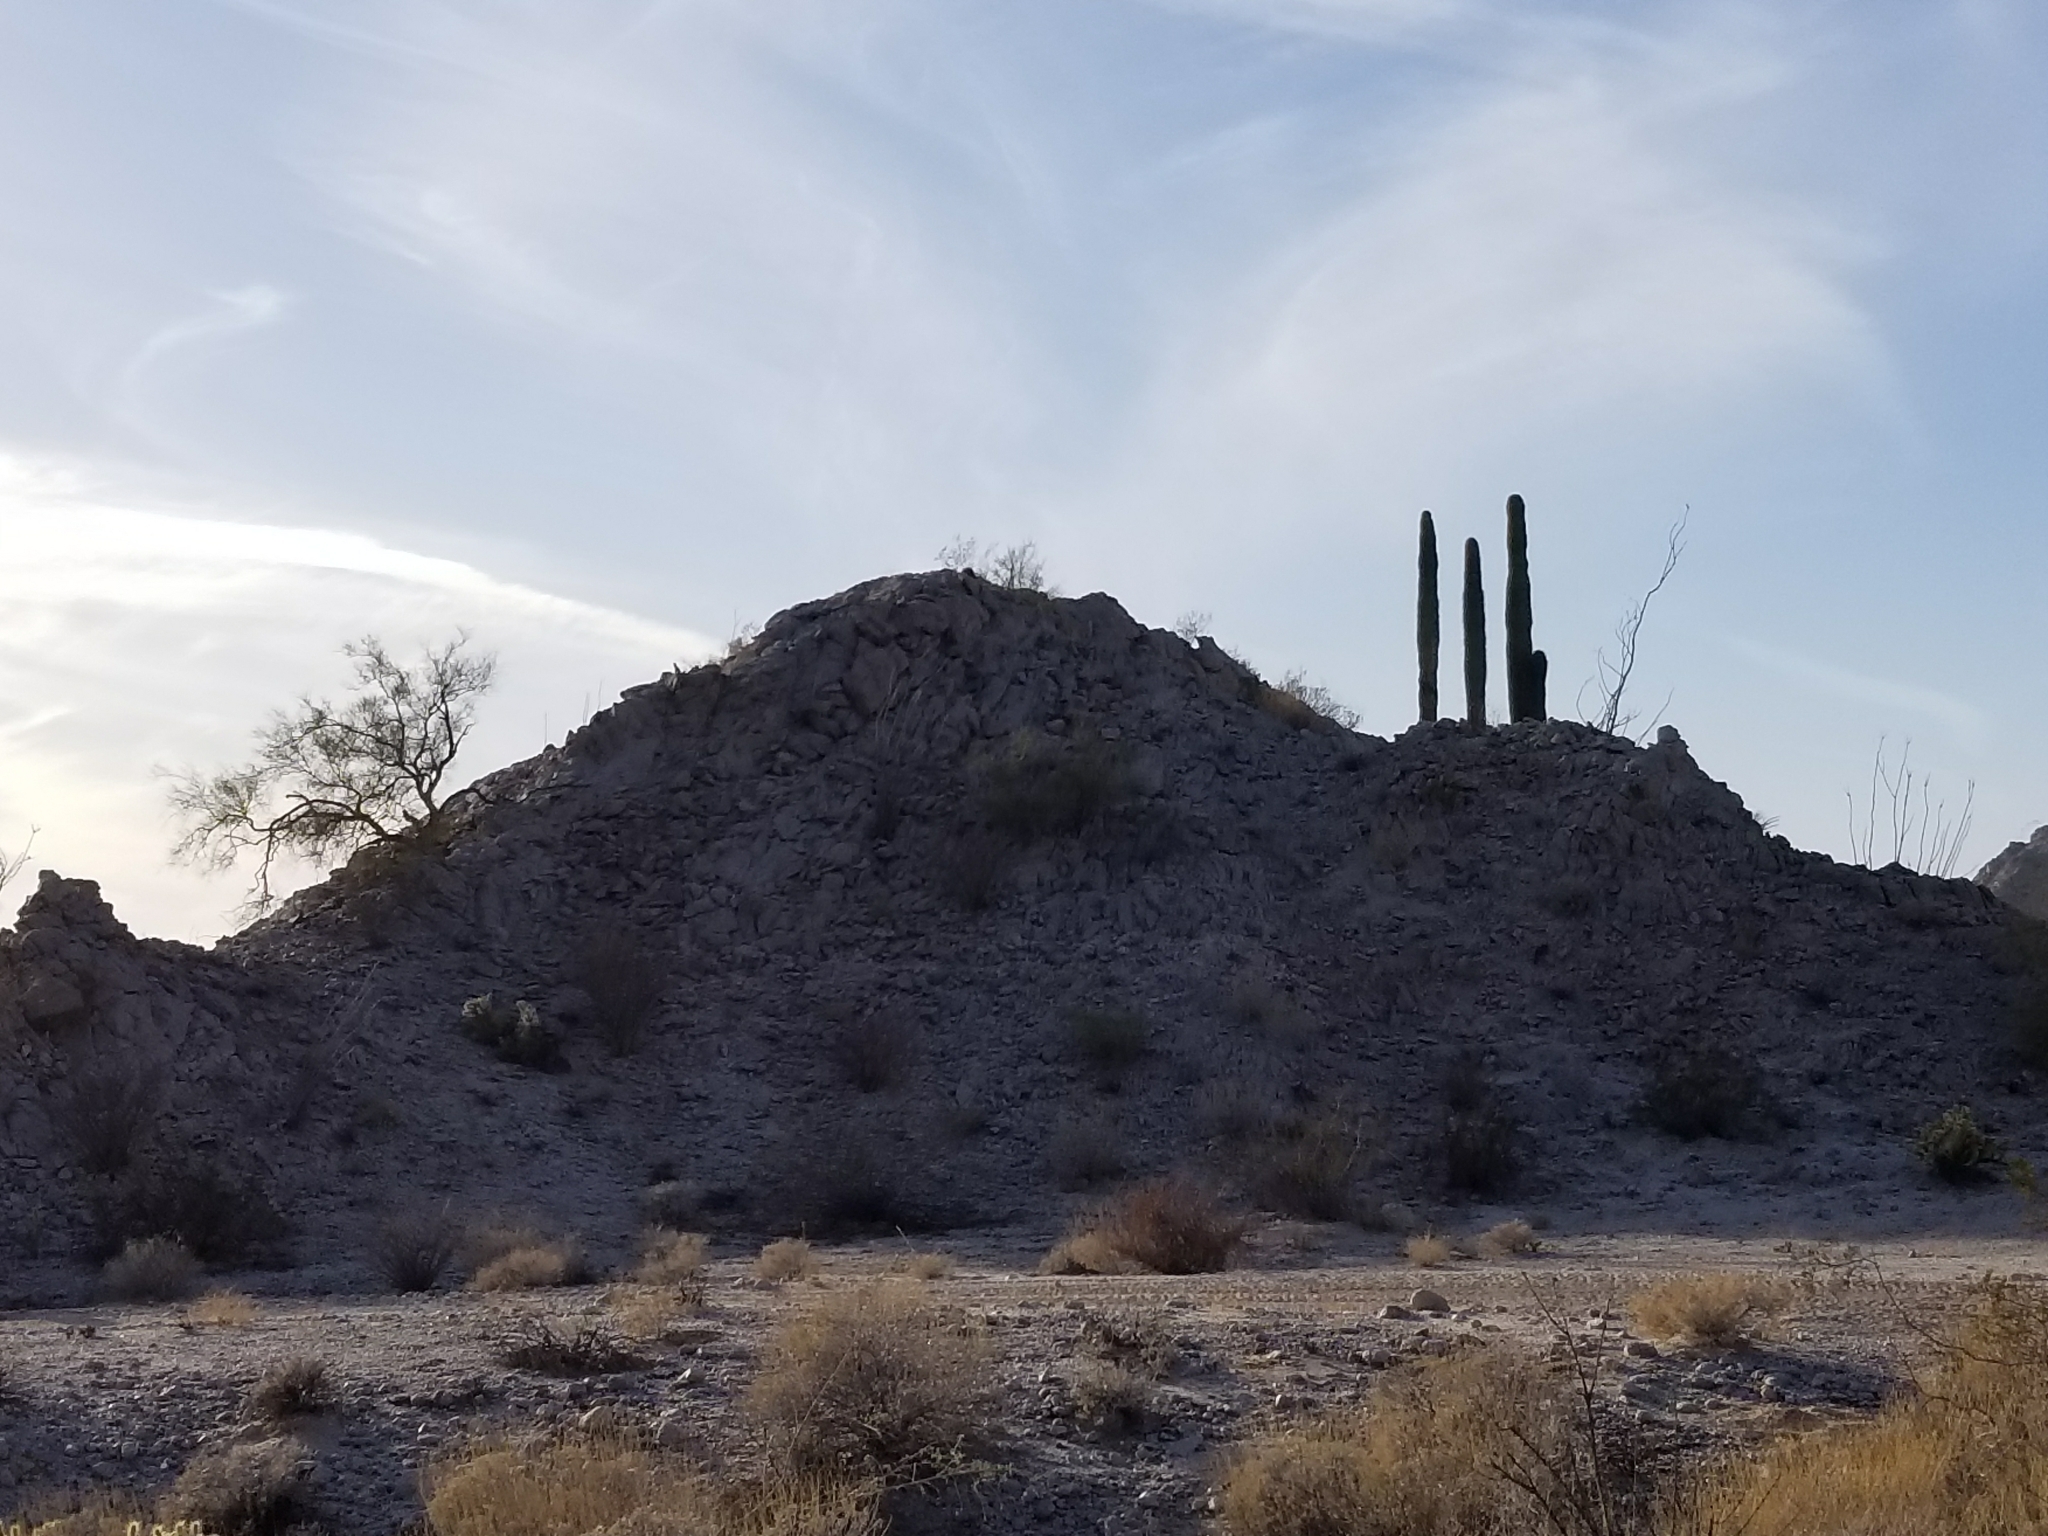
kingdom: Plantae
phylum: Tracheophyta
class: Magnoliopsida
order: Caryophyllales
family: Cactaceae
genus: Carnegiea
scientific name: Carnegiea gigantea
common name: Saguaro
